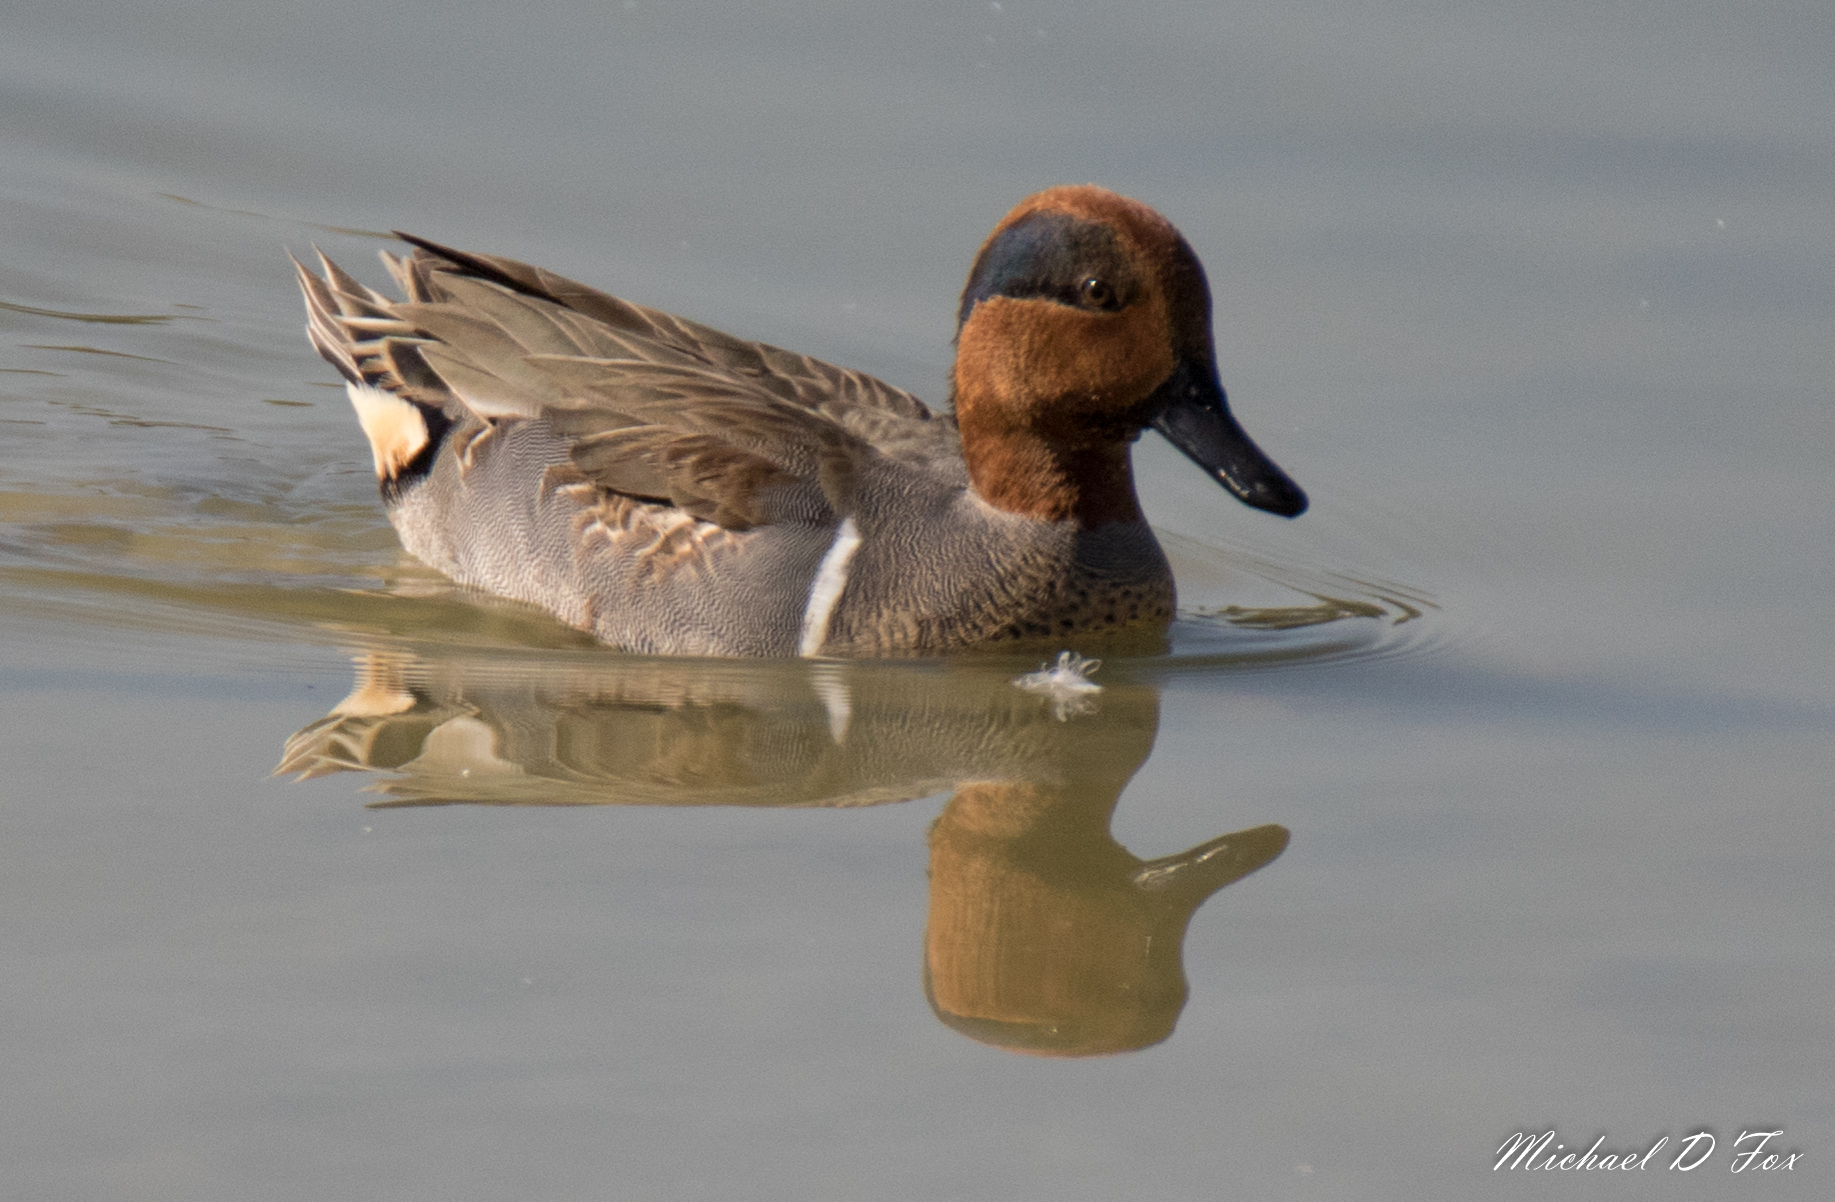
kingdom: Animalia
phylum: Chordata
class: Aves
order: Anseriformes
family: Anatidae
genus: Anas
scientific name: Anas crecca
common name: Eurasian teal
